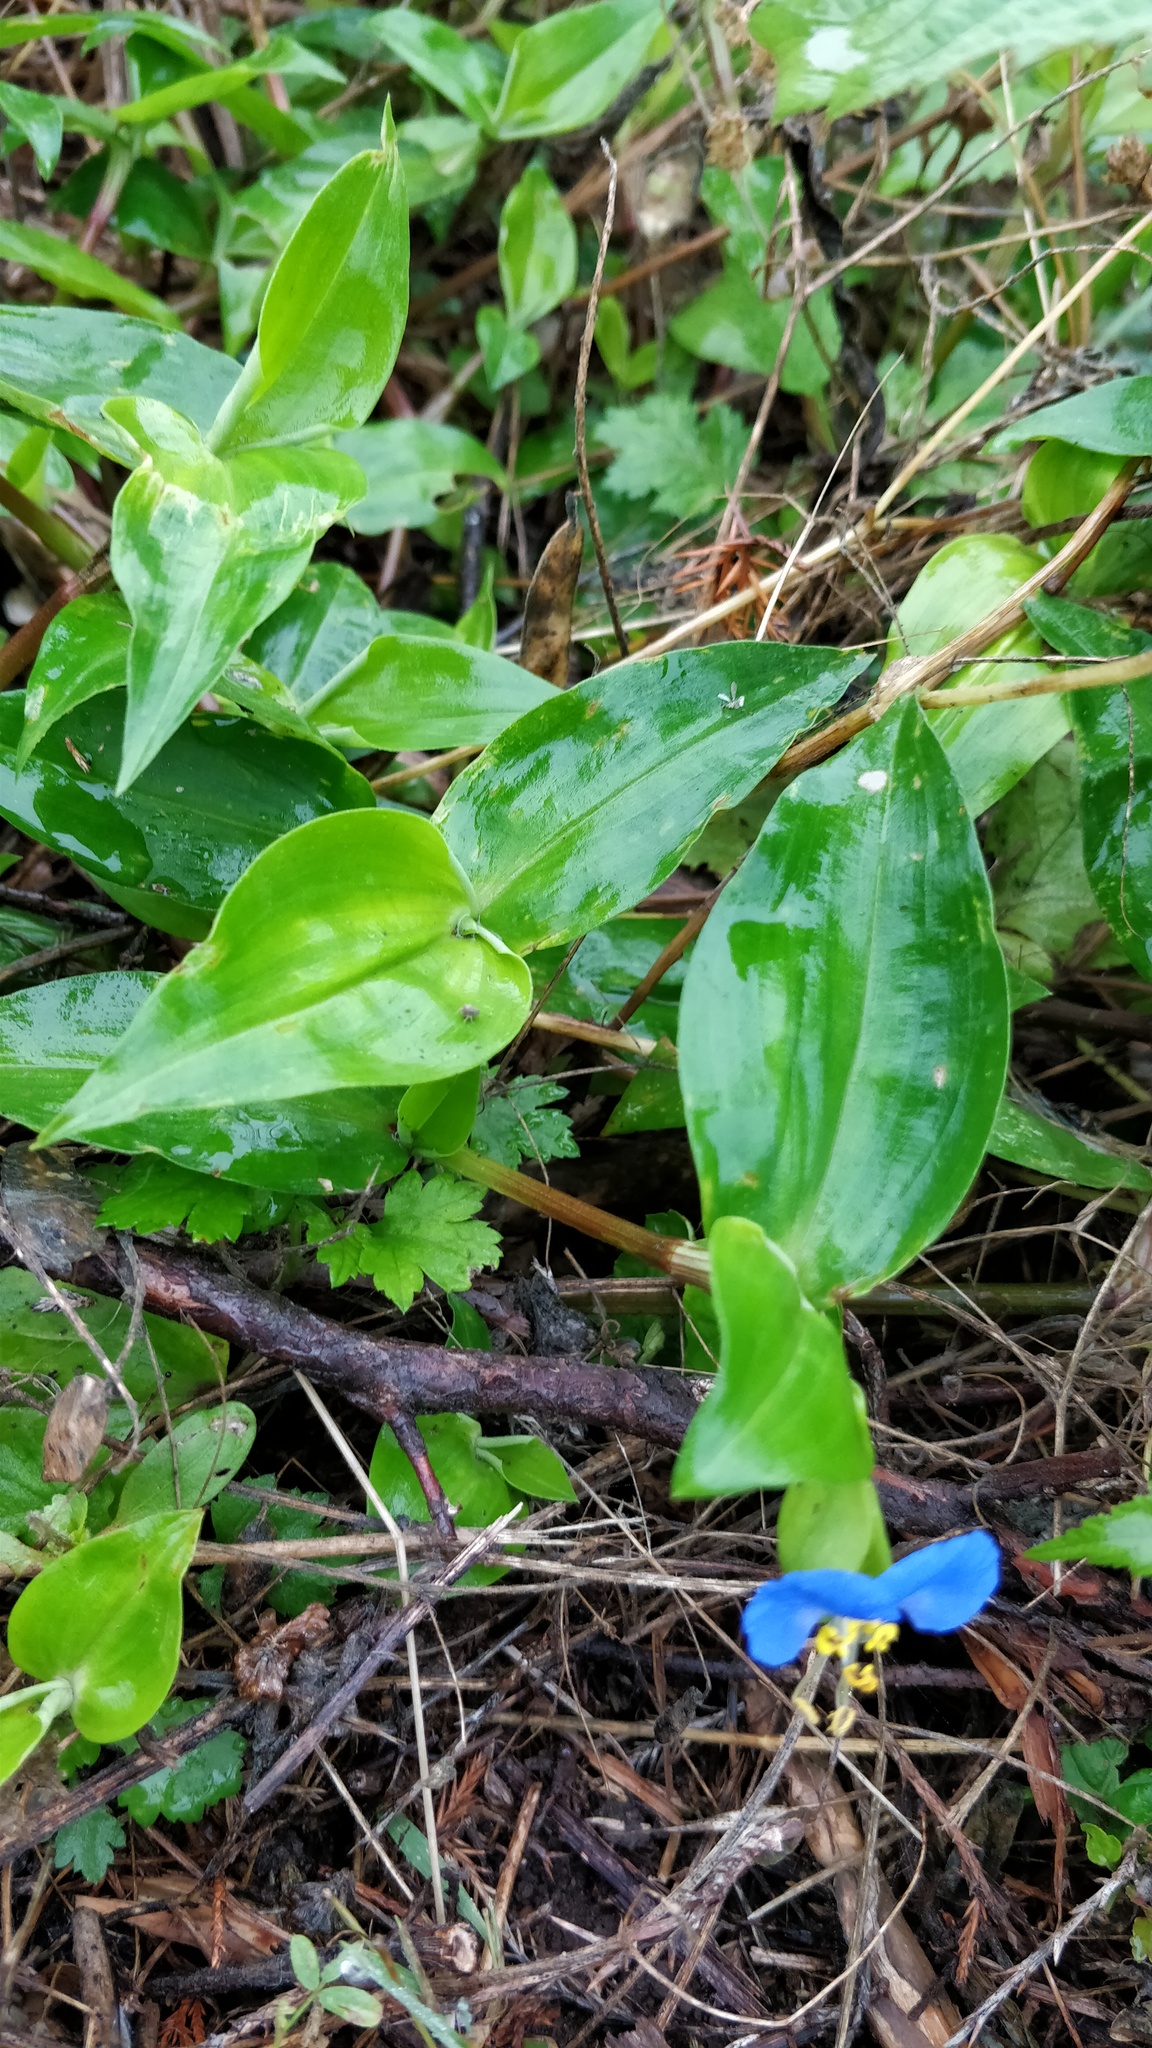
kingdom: Plantae
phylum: Tracheophyta
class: Liliopsida
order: Commelinales
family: Commelinaceae
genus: Commelina
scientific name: Commelina communis
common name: Asiatic dayflower
